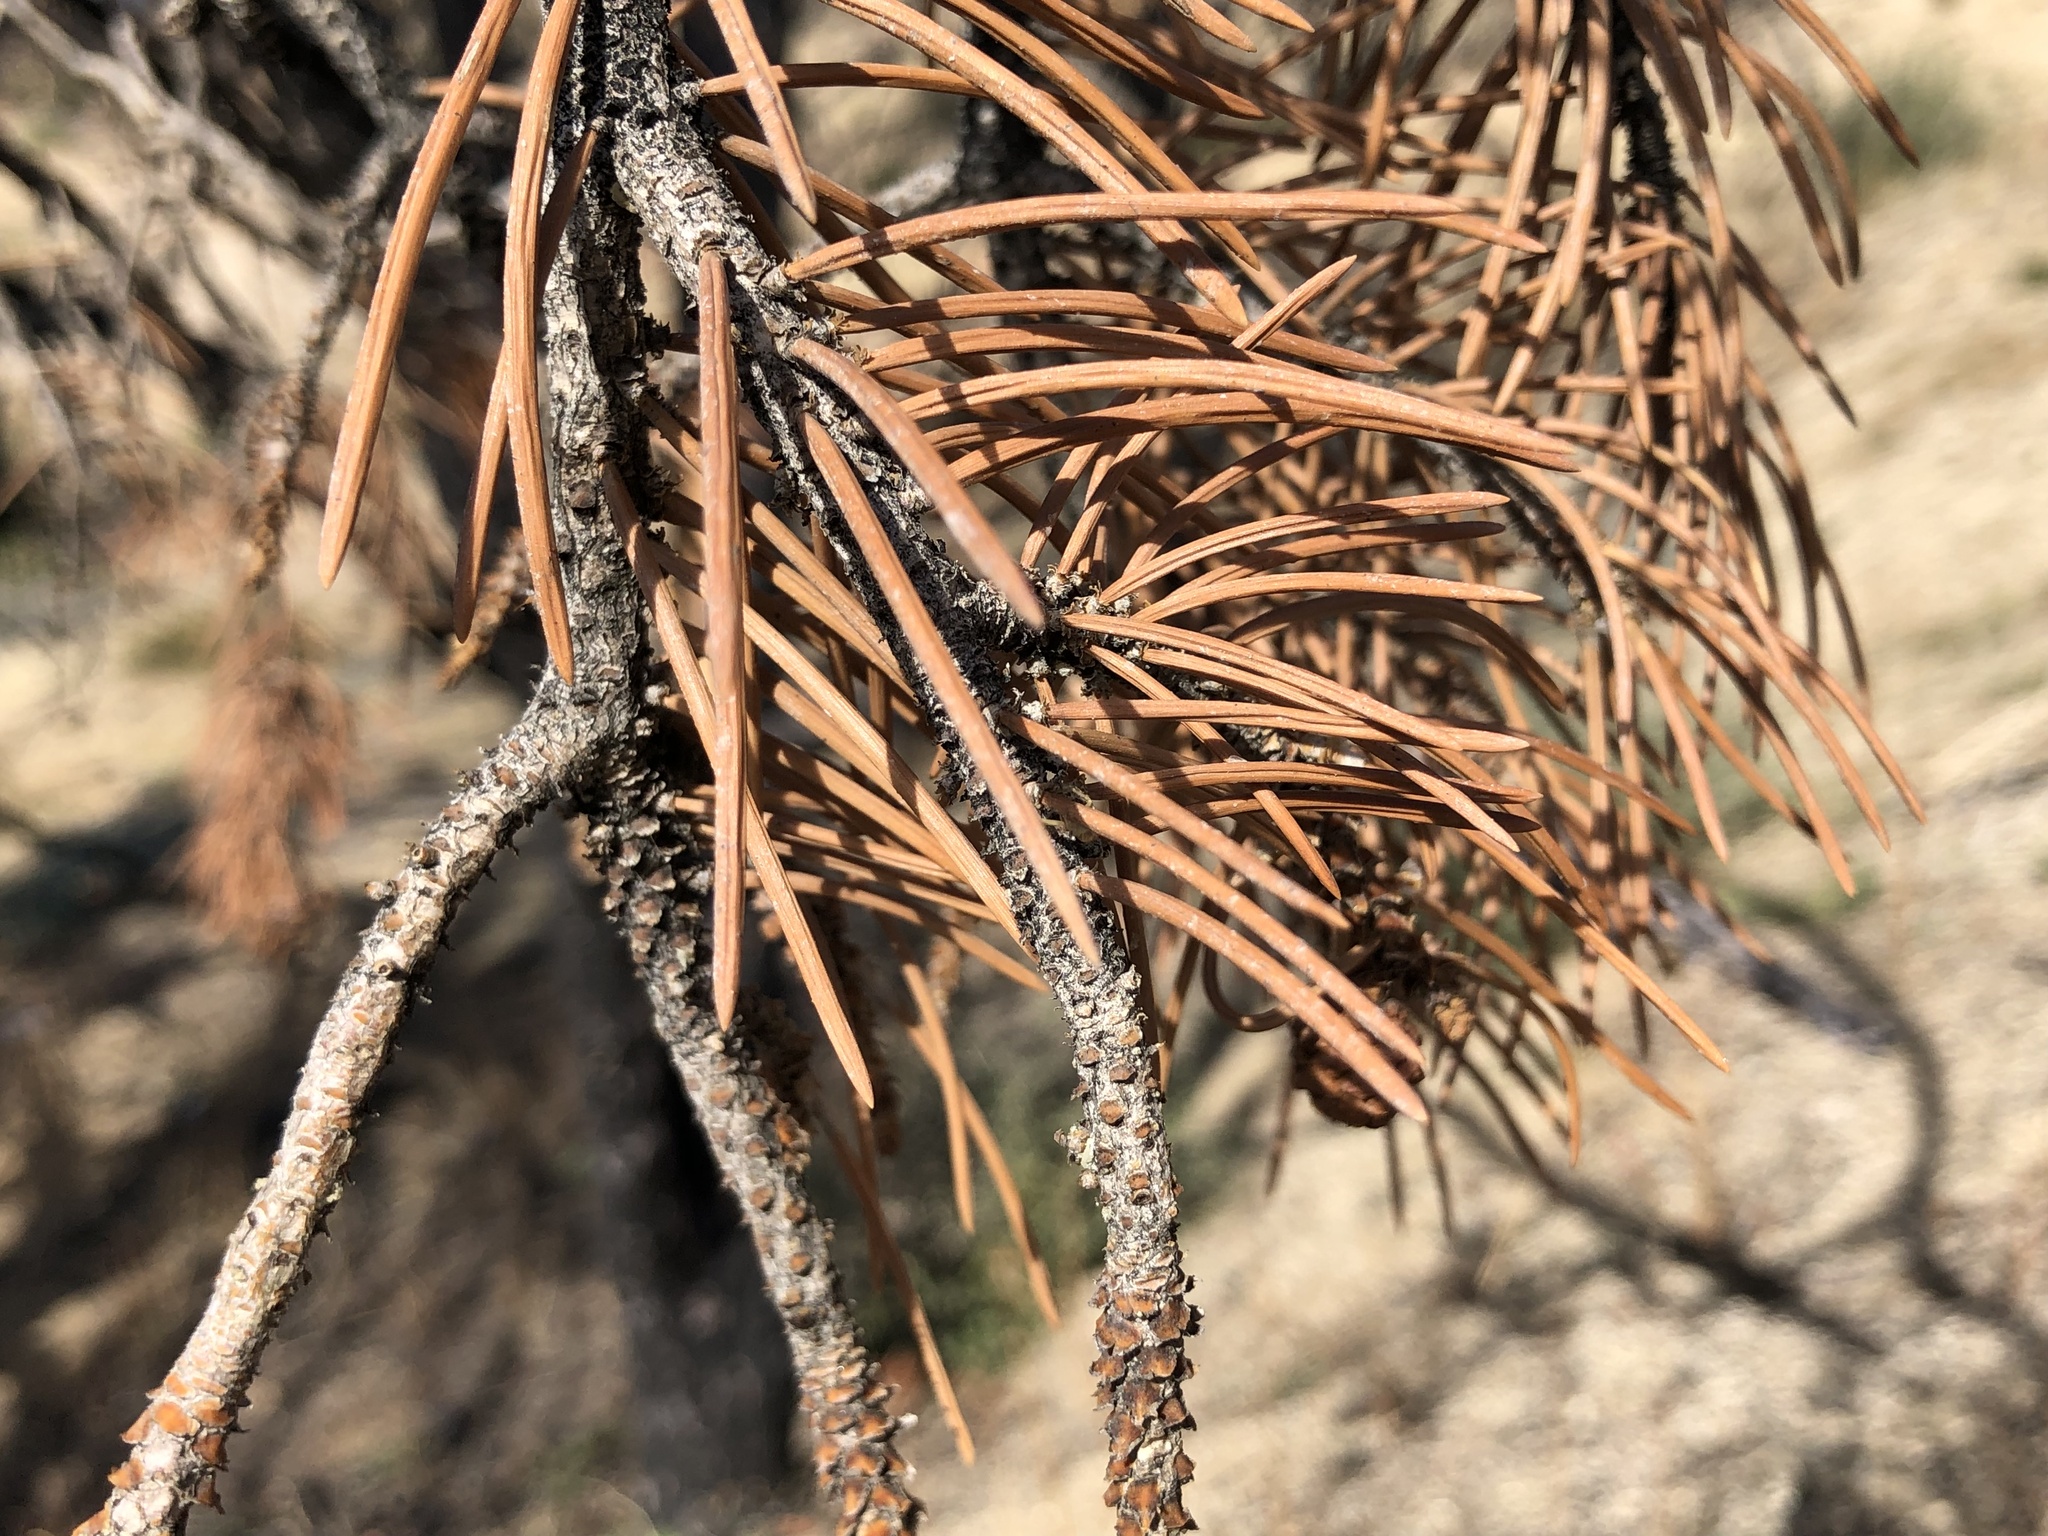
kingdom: Plantae
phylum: Tracheophyta
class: Pinopsida
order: Pinales
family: Pinaceae
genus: Pinus
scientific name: Pinus monophylla
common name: One-leaved nut pine
